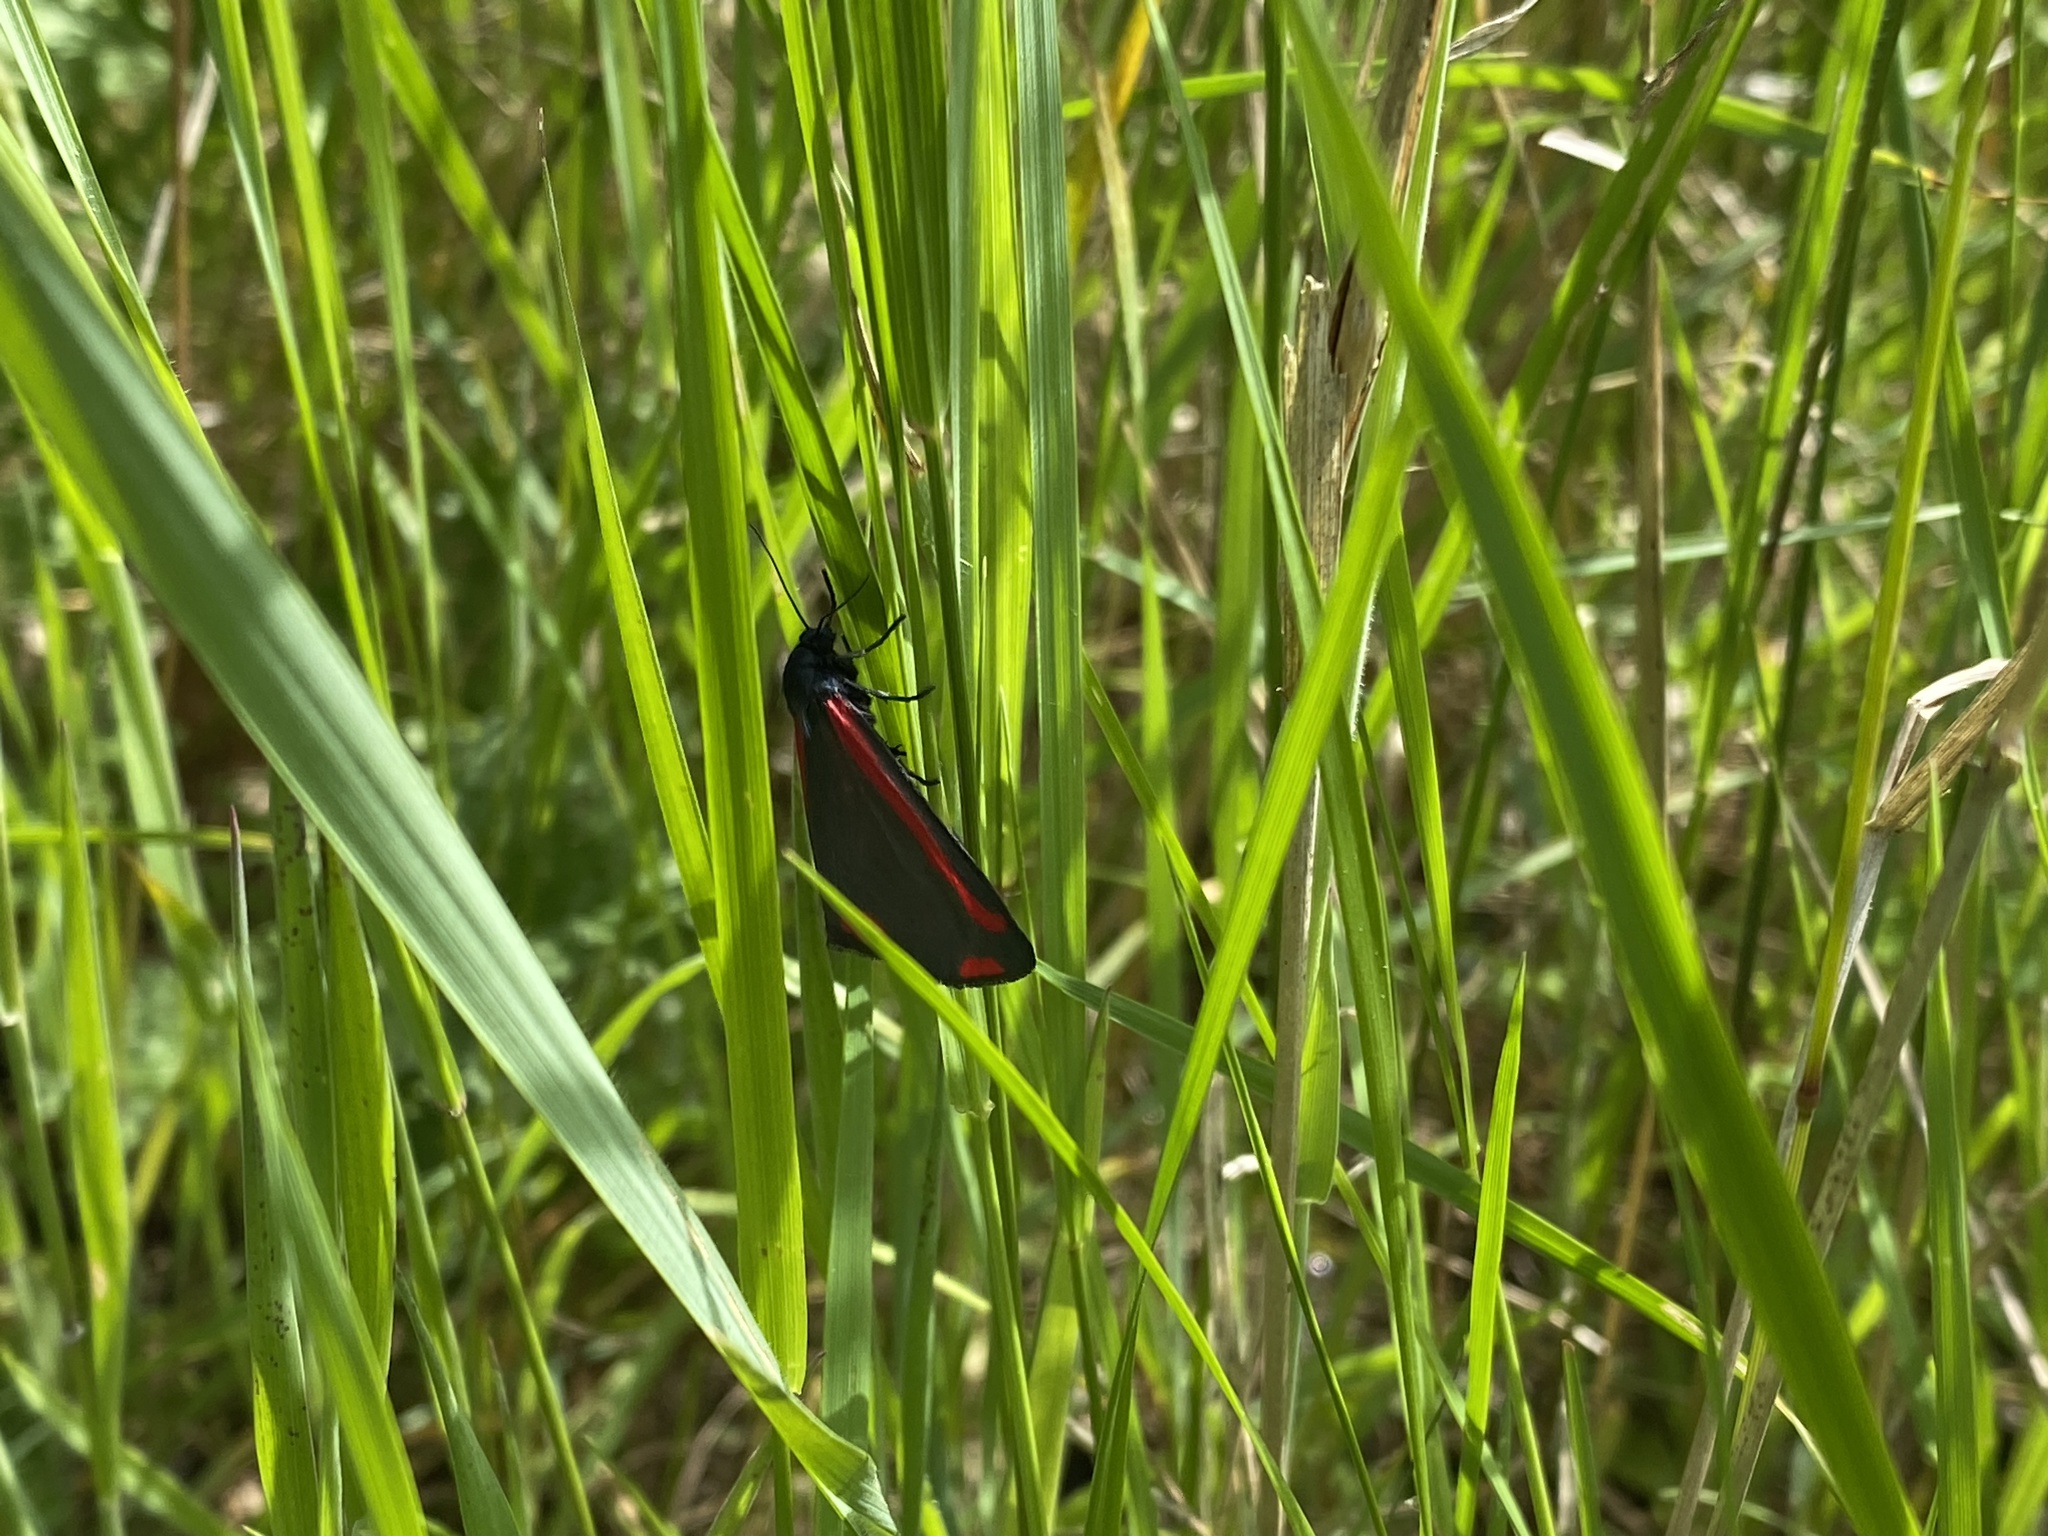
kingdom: Animalia
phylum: Arthropoda
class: Insecta
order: Lepidoptera
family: Erebidae
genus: Tyria
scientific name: Tyria jacobaeae
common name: Cinnabar
